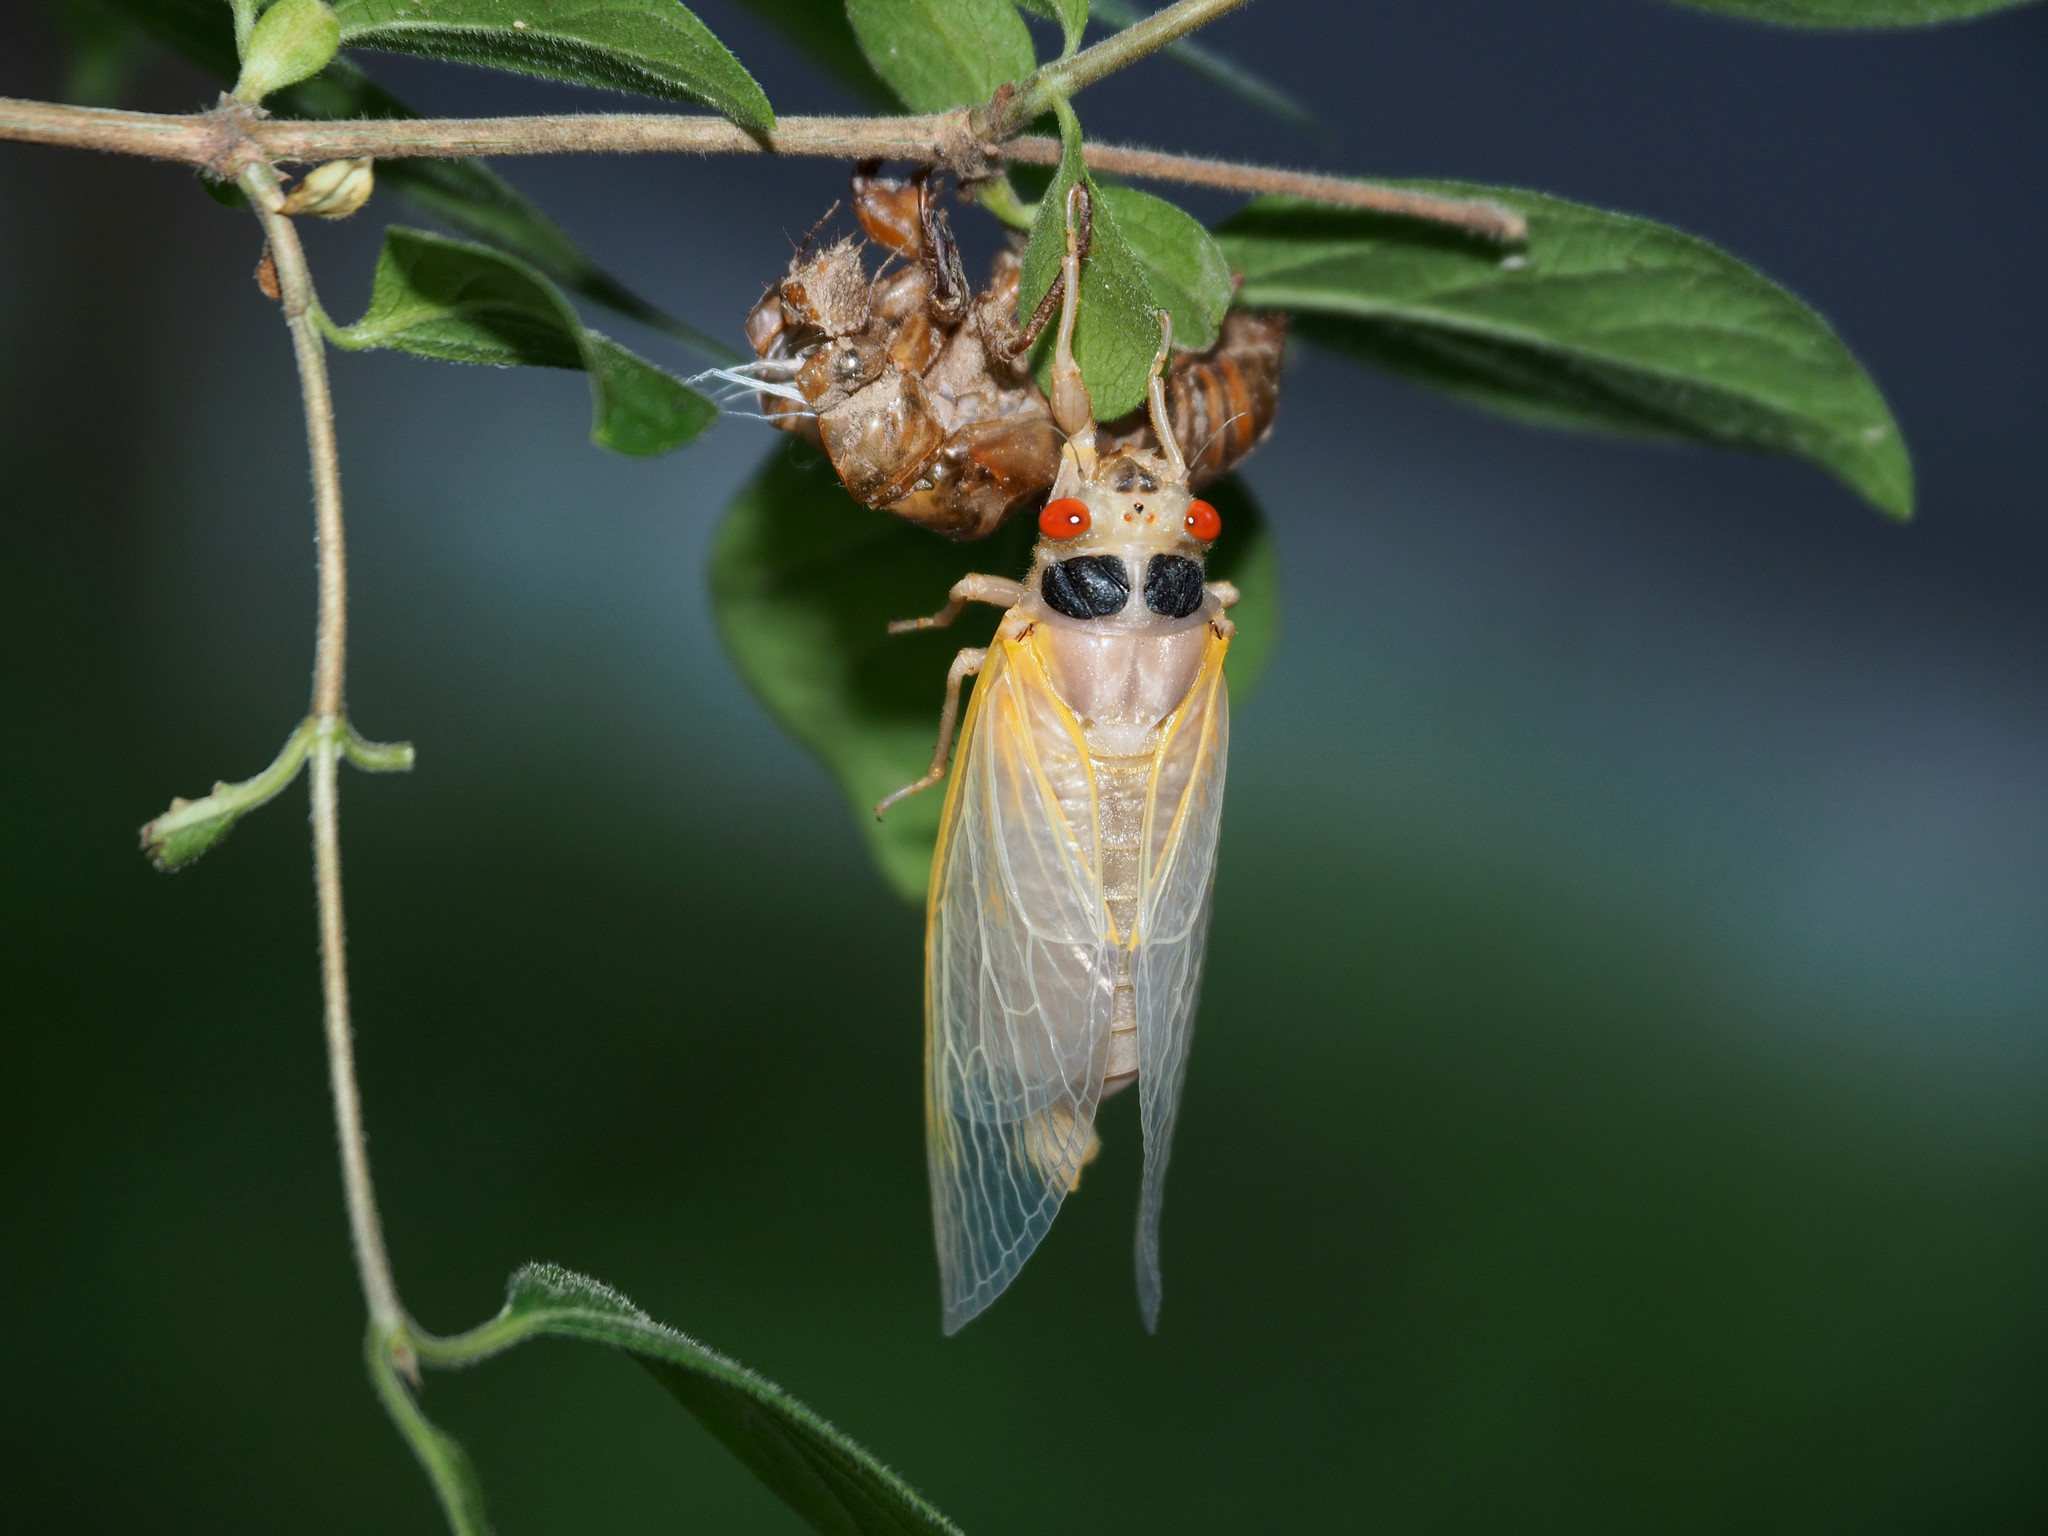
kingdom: Animalia
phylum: Arthropoda
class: Insecta
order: Hemiptera
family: Cicadidae
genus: Magicicada
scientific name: Magicicada
